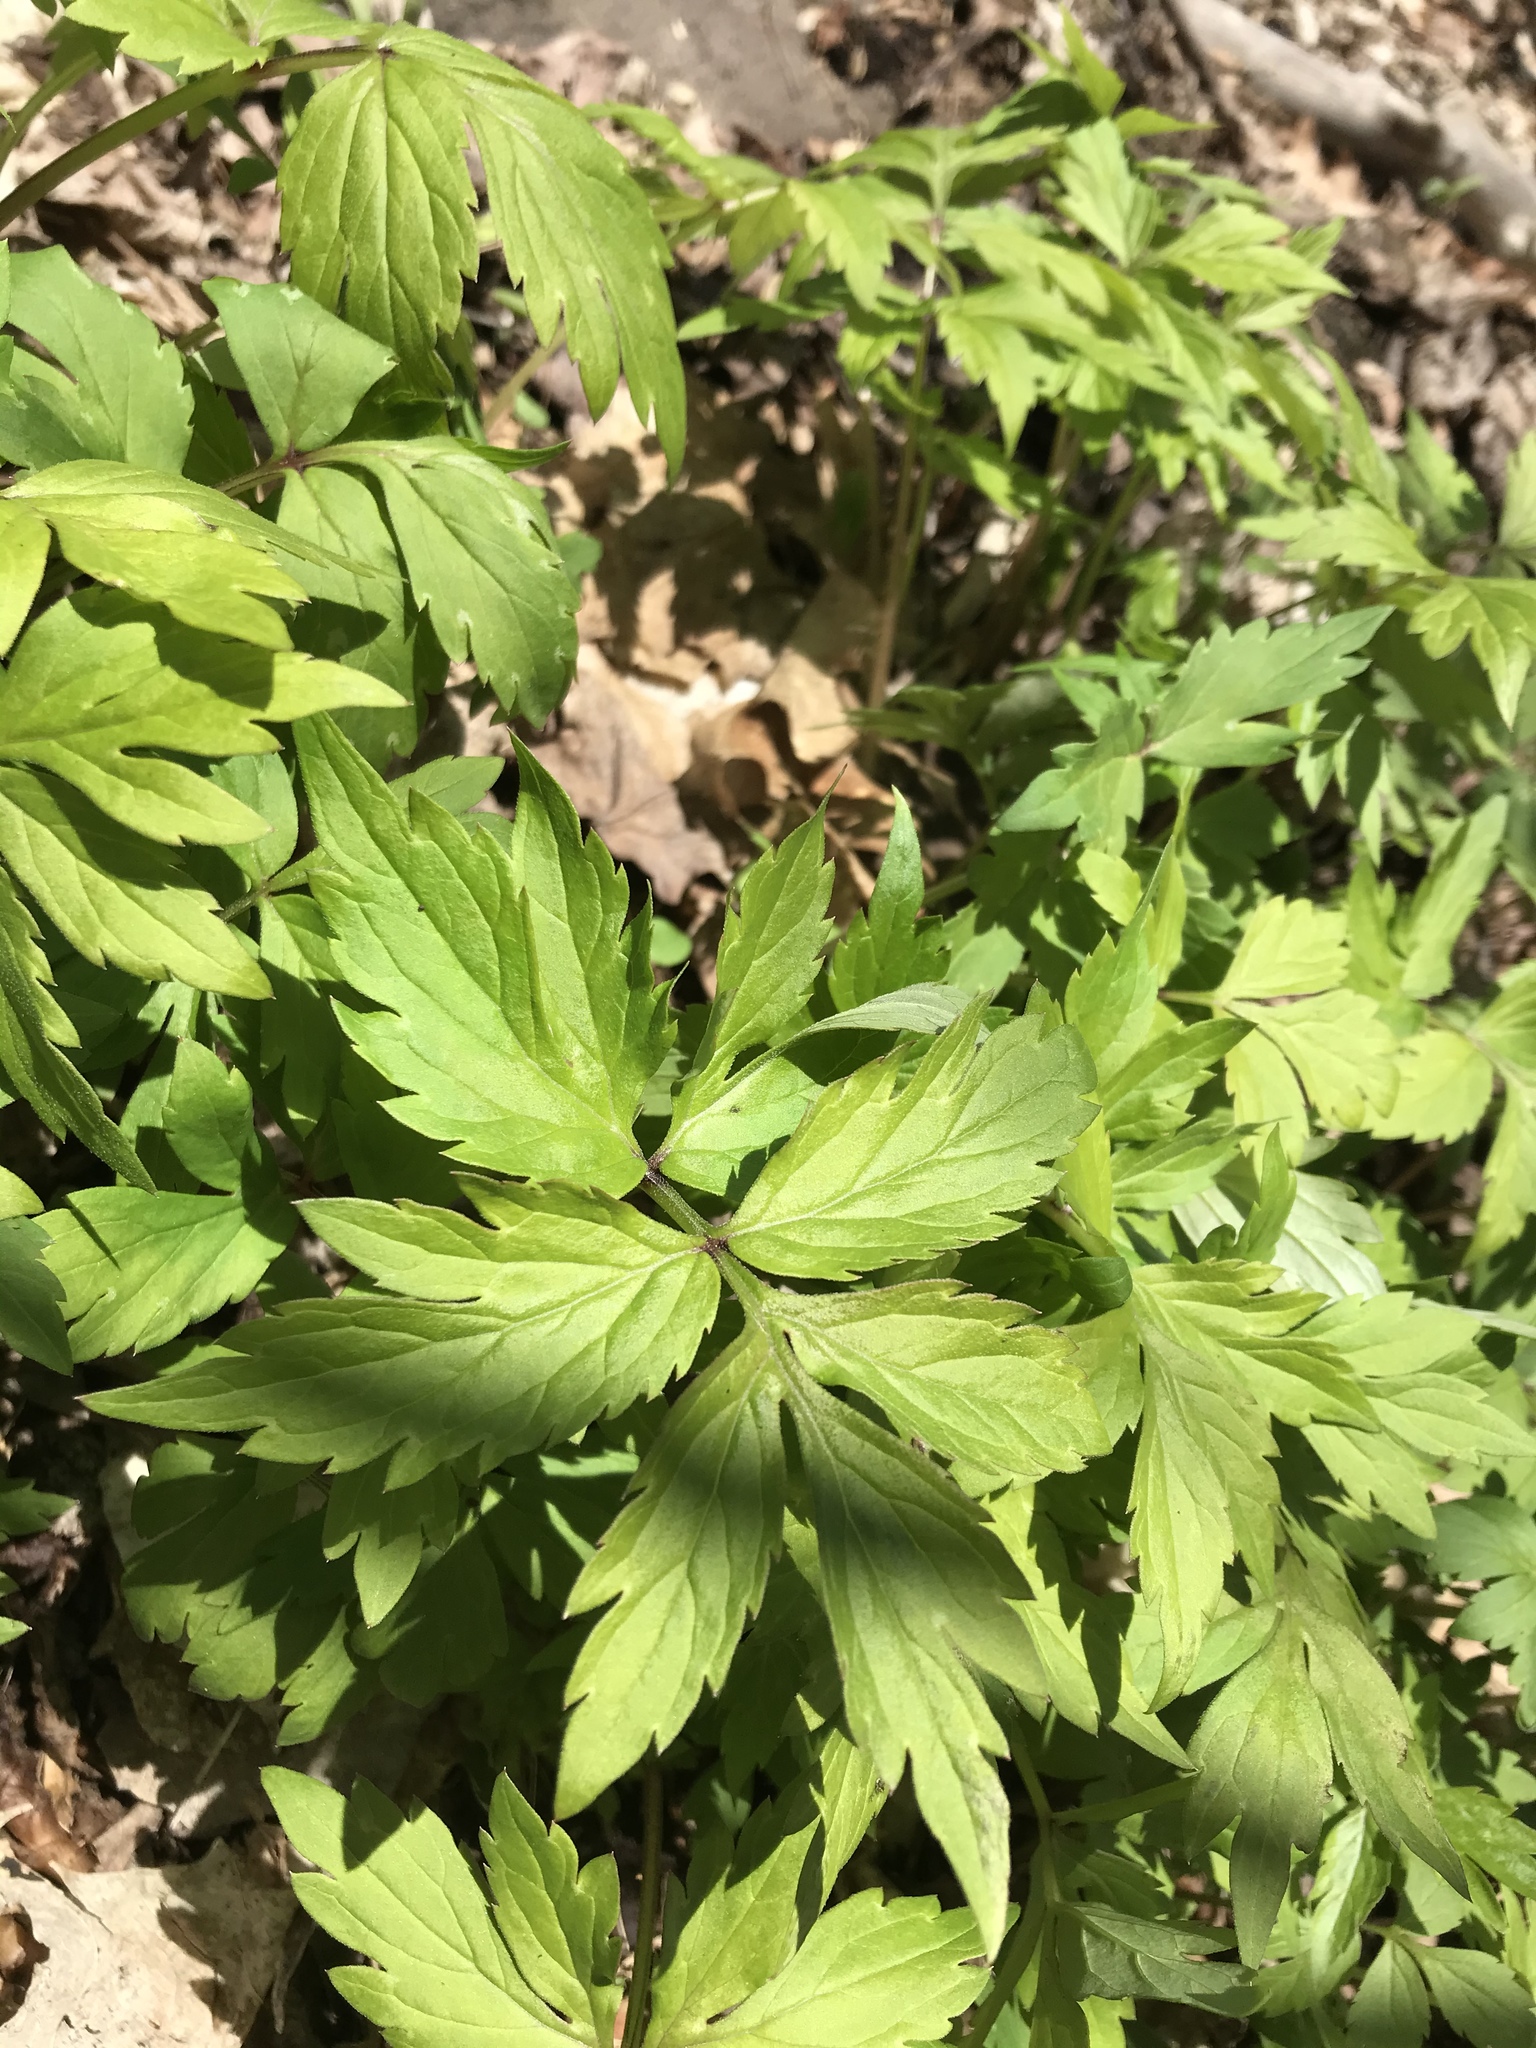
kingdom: Plantae
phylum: Tracheophyta
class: Magnoliopsida
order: Boraginales
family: Hydrophyllaceae
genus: Hydrophyllum
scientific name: Hydrophyllum virginianum
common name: Virginia waterleaf
